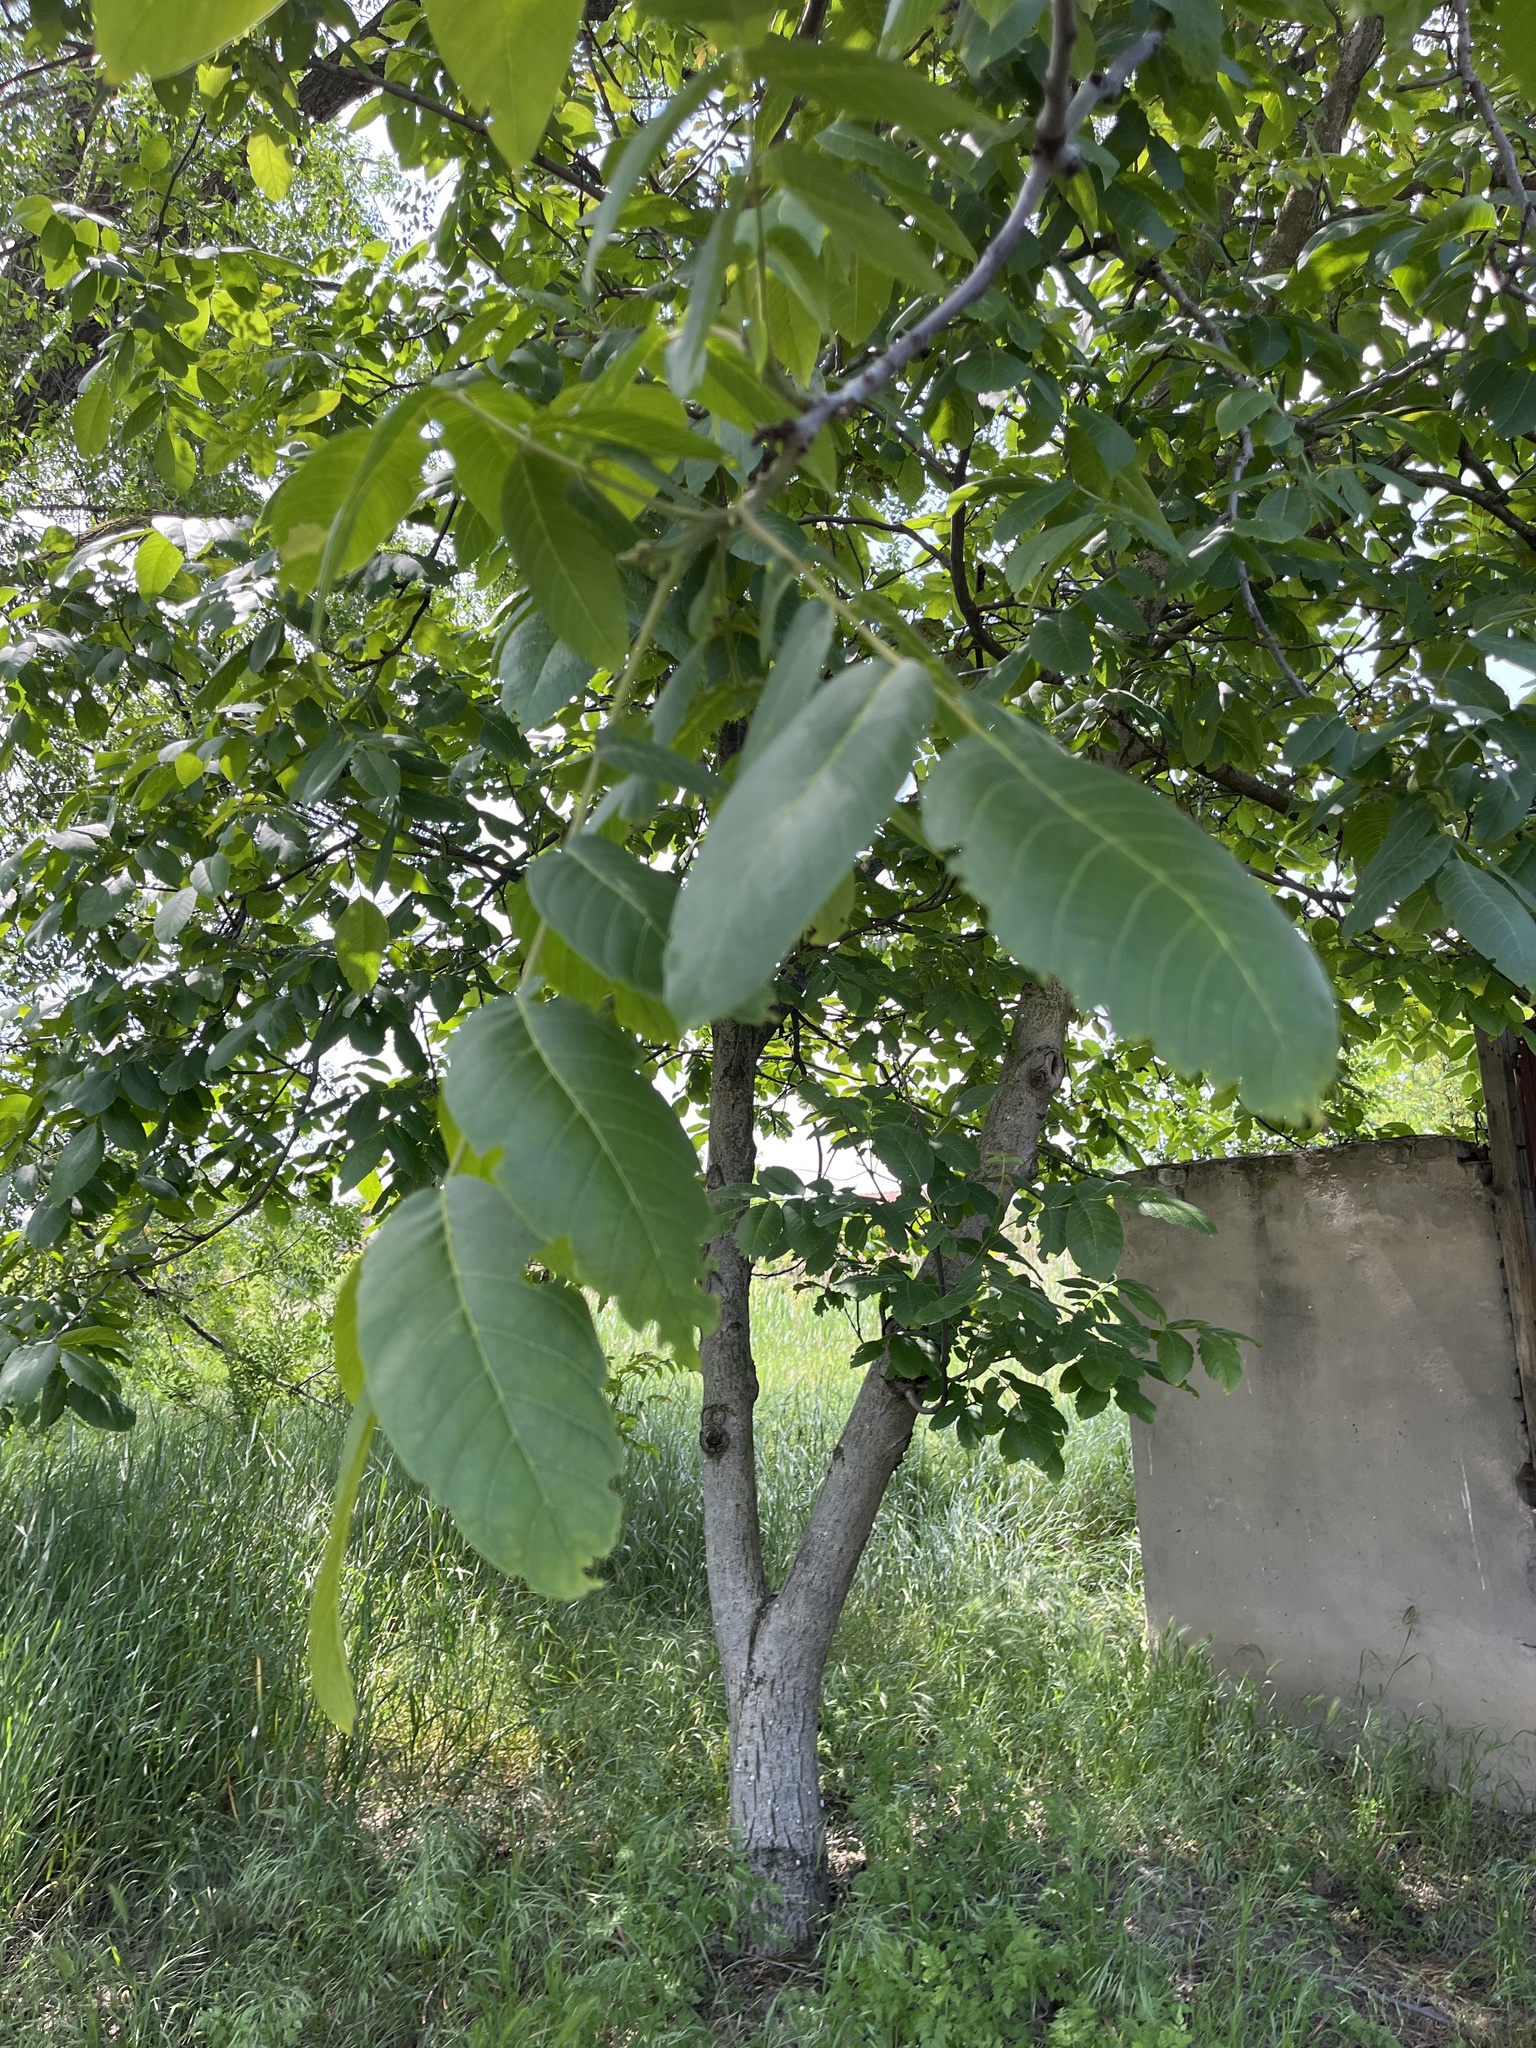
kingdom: Plantae
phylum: Tracheophyta
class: Magnoliopsida
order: Fagales
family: Juglandaceae
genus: Juglans
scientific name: Juglans regia
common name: Walnut
